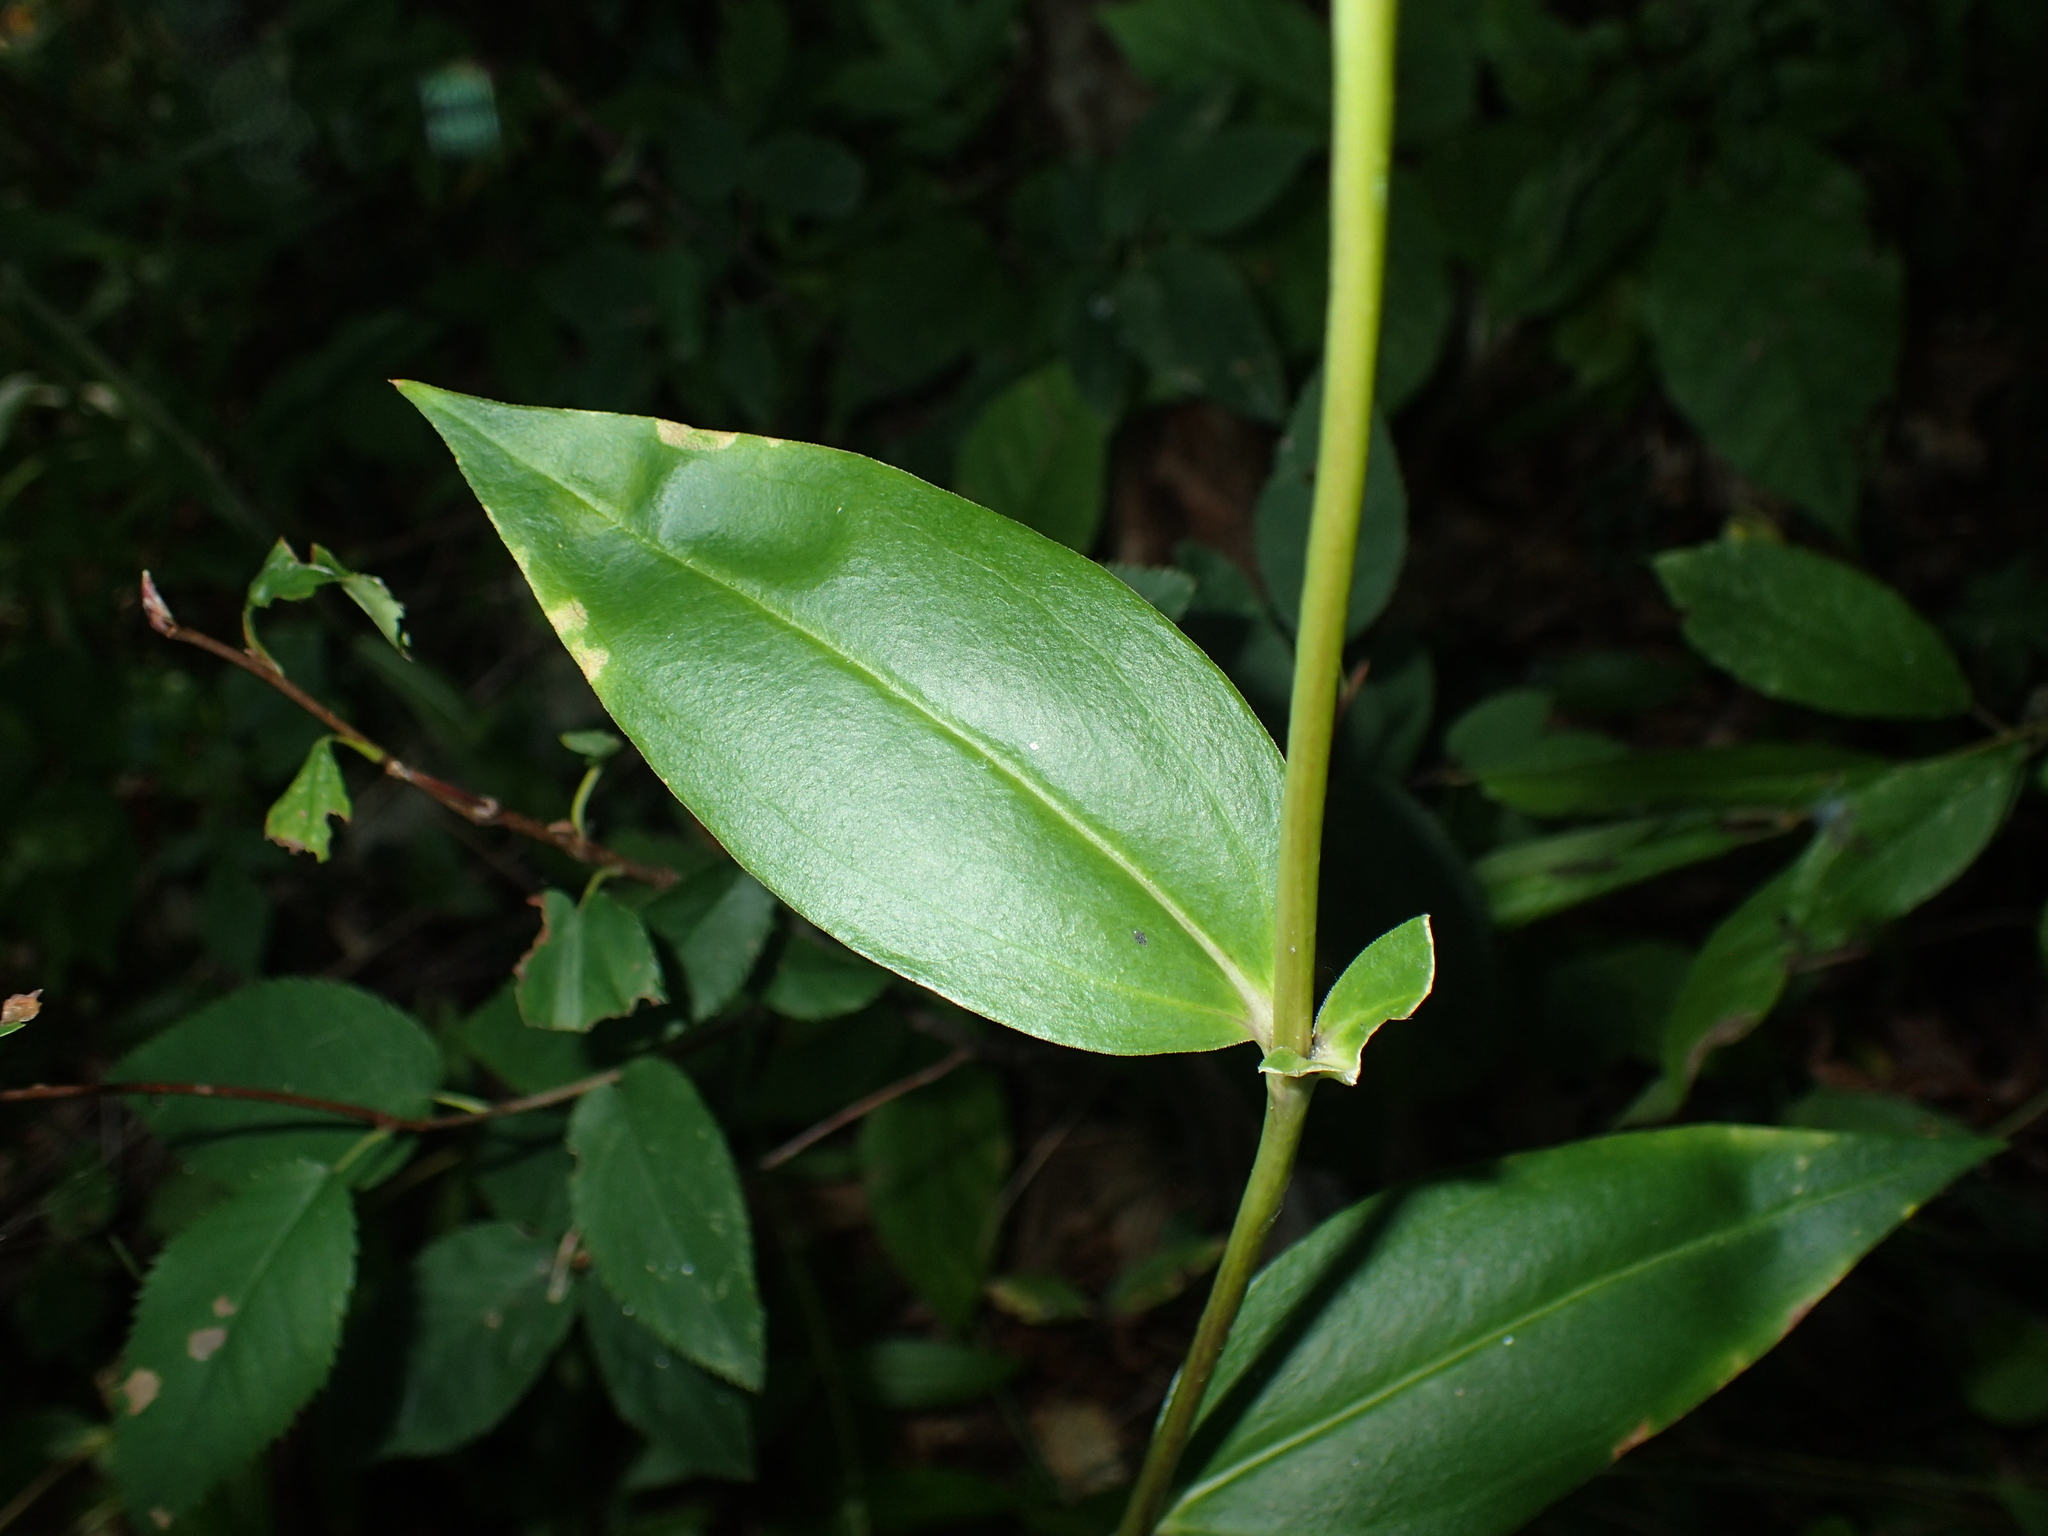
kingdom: Plantae
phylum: Tracheophyta
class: Magnoliopsida
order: Gentianales
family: Gentianaceae
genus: Gentiana
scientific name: Gentiana clausa
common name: Blind gentian
